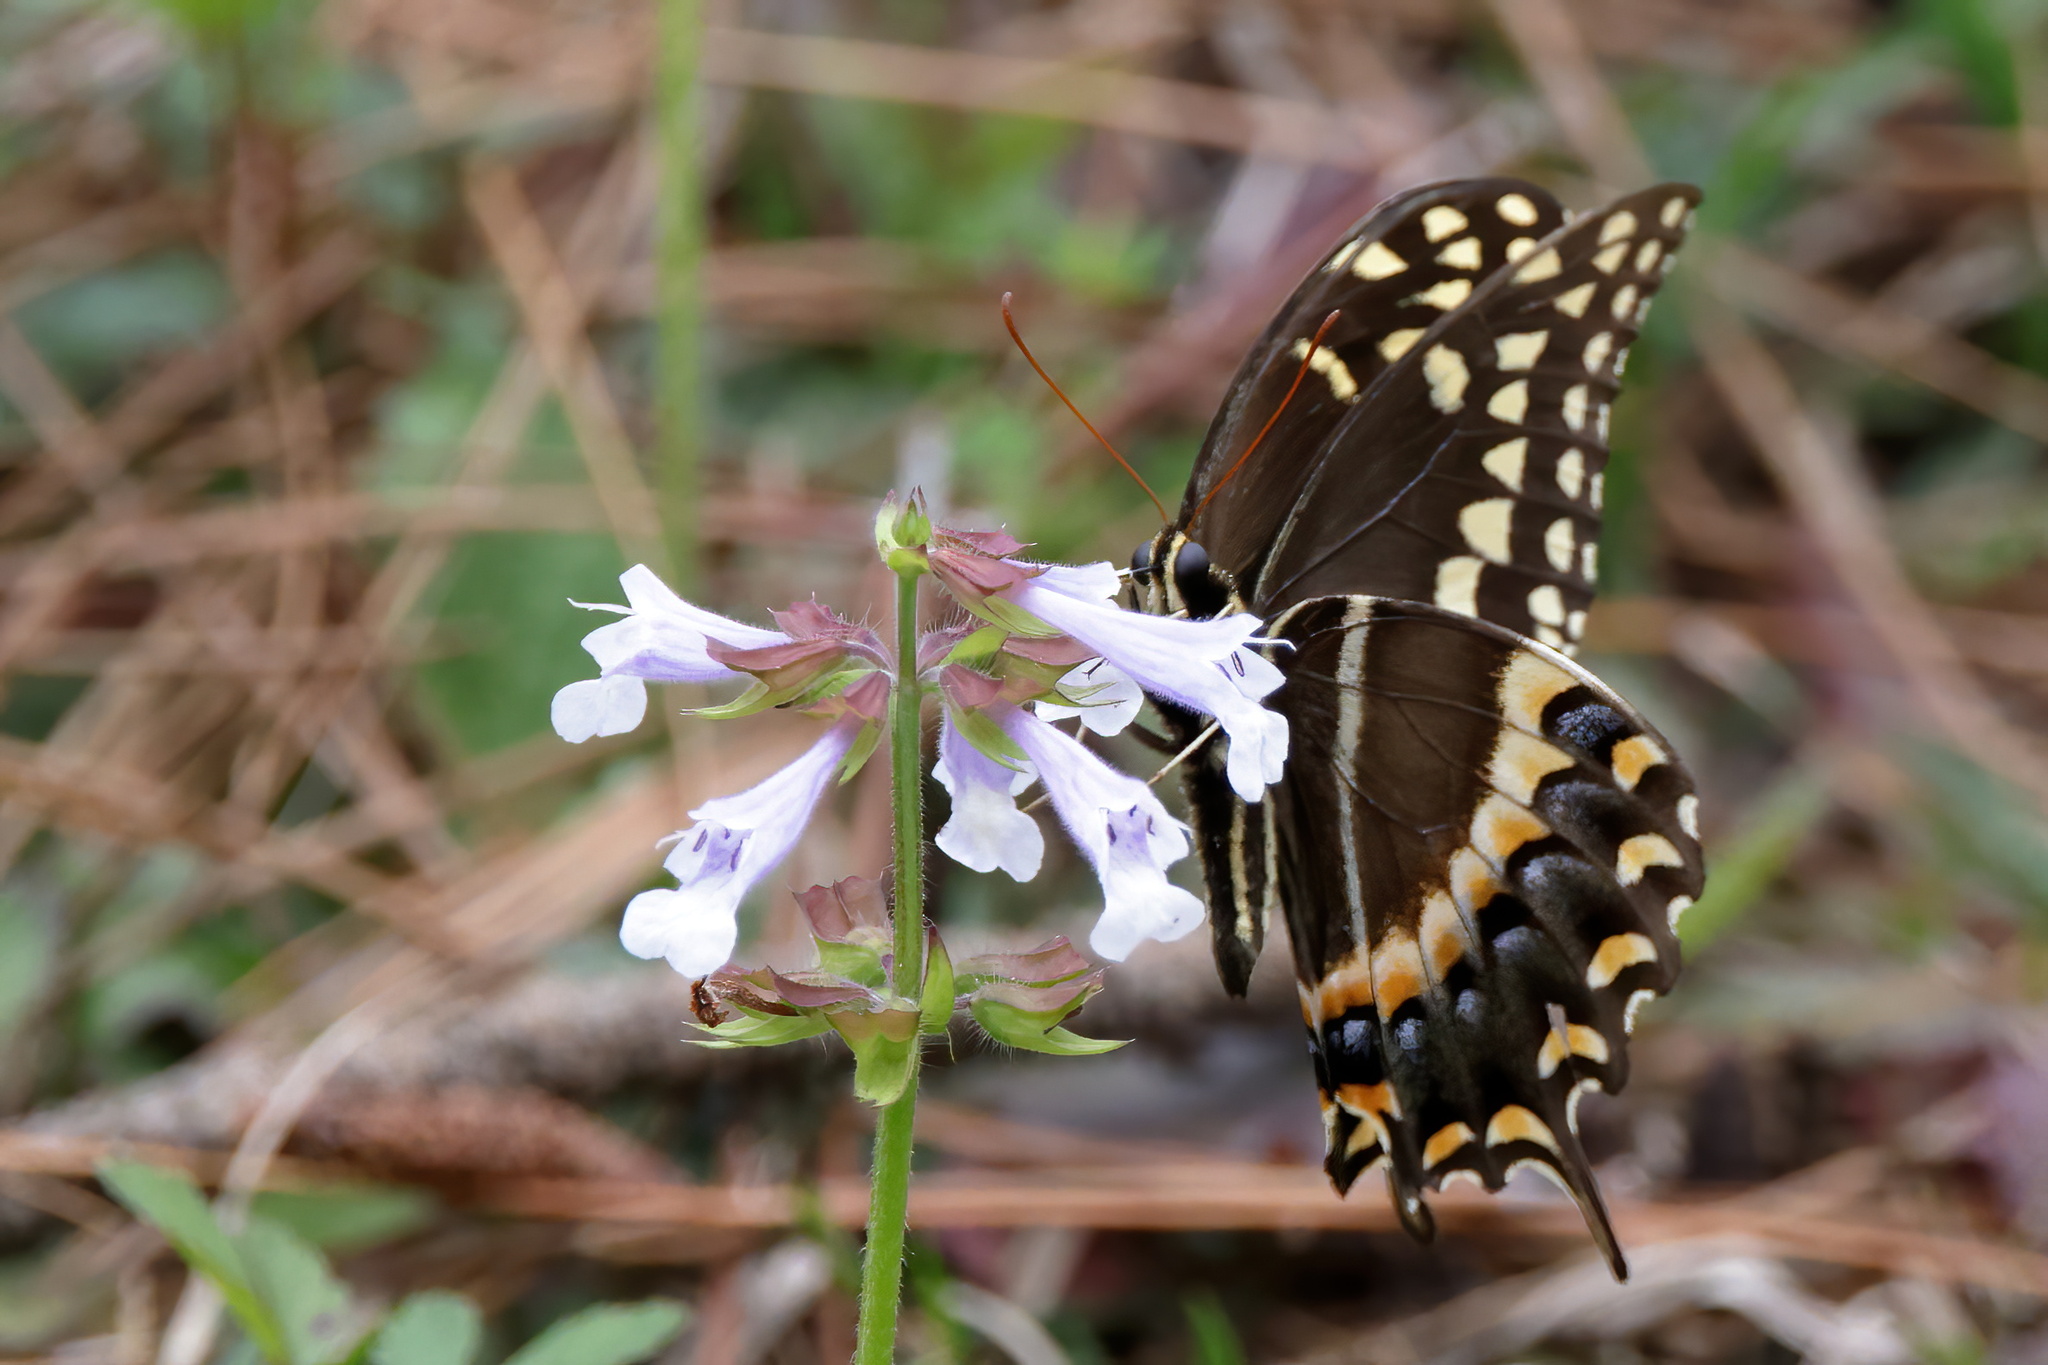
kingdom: Animalia
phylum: Arthropoda
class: Insecta
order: Lepidoptera
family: Papilionidae
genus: Papilio
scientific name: Papilio palamedes
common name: Palamedes swallowtail
